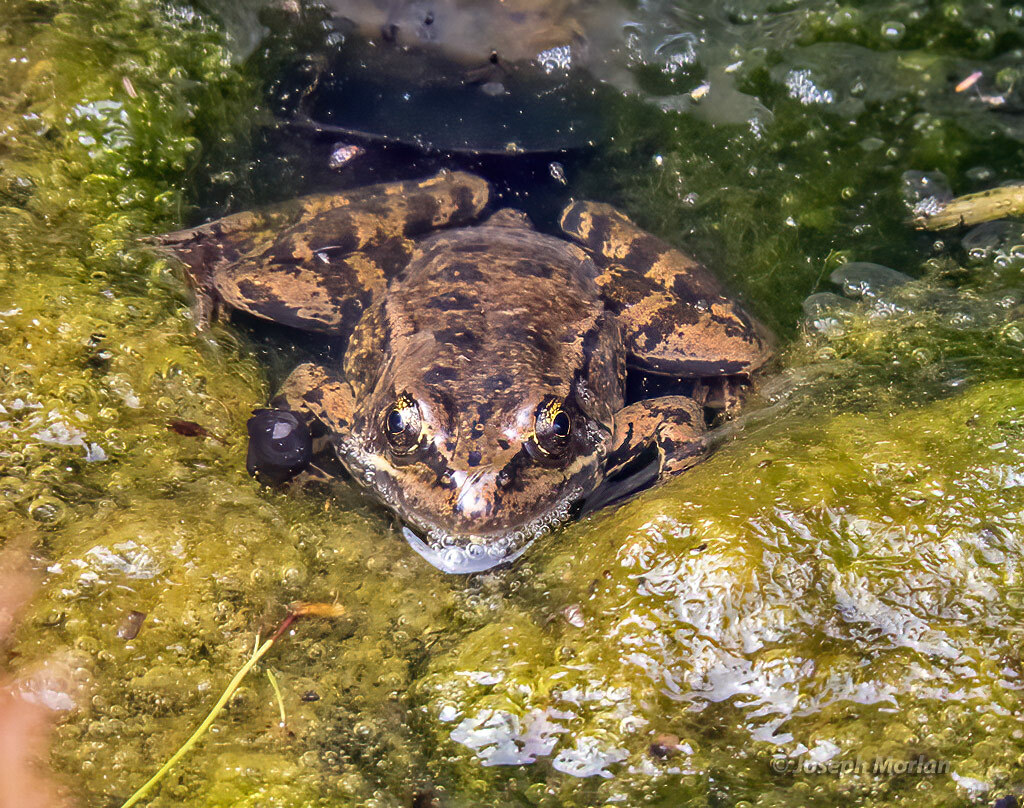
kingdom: Animalia
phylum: Chordata
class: Amphibia
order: Anura
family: Ranidae
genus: Rana
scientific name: Rana draytonii
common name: California red-legged frog
